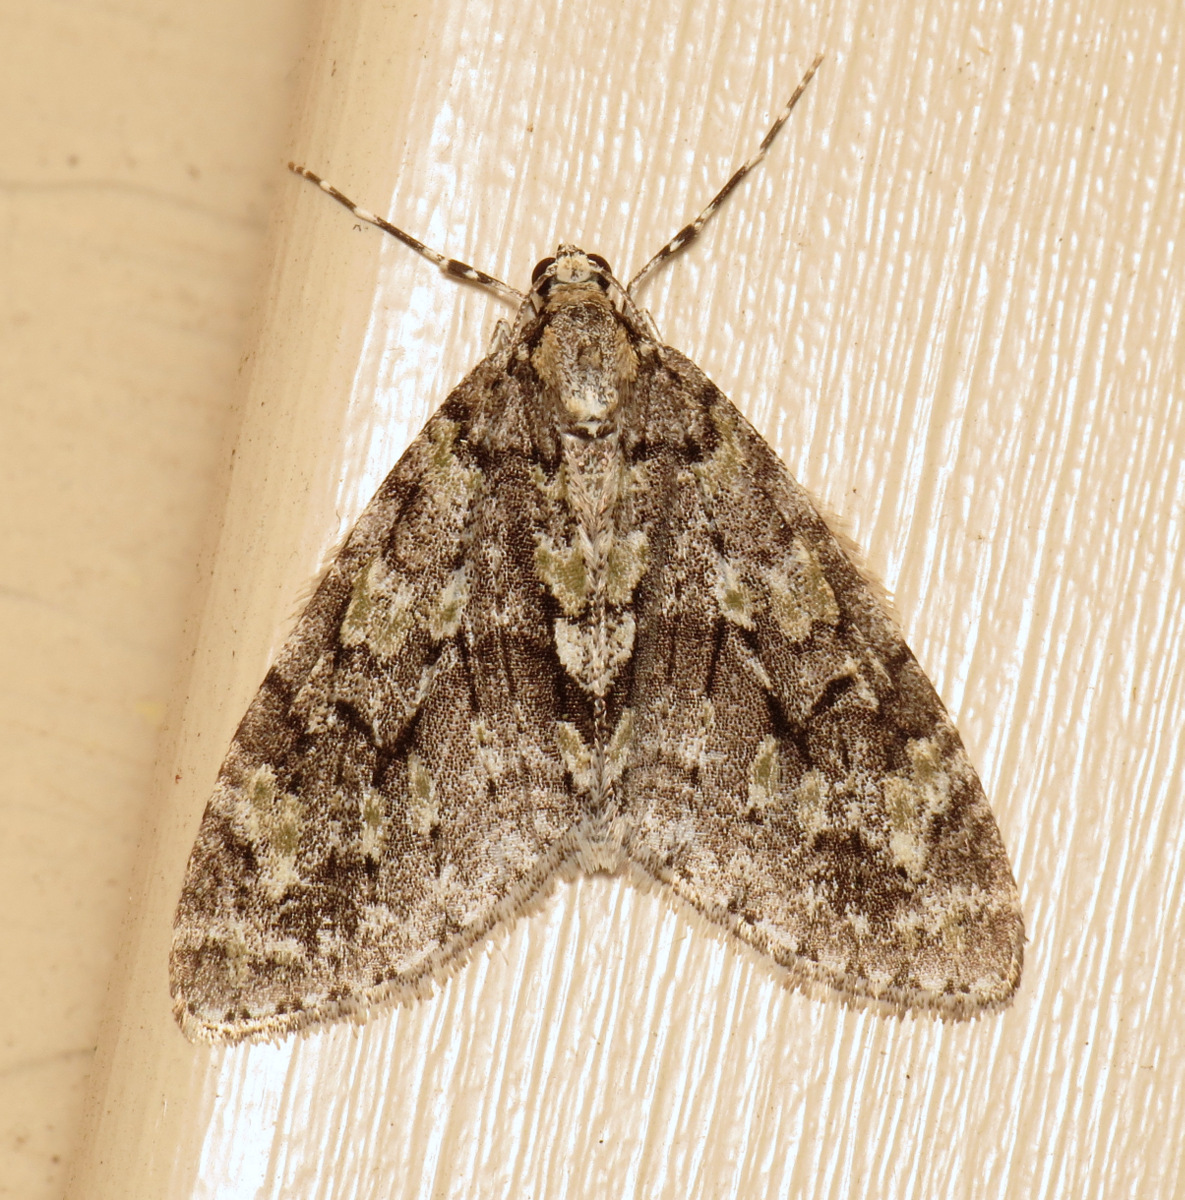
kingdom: Animalia
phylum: Arthropoda
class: Insecta
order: Lepidoptera
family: Geometridae
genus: Cladara
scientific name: Cladara limitaria
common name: Mottled gray carpet
